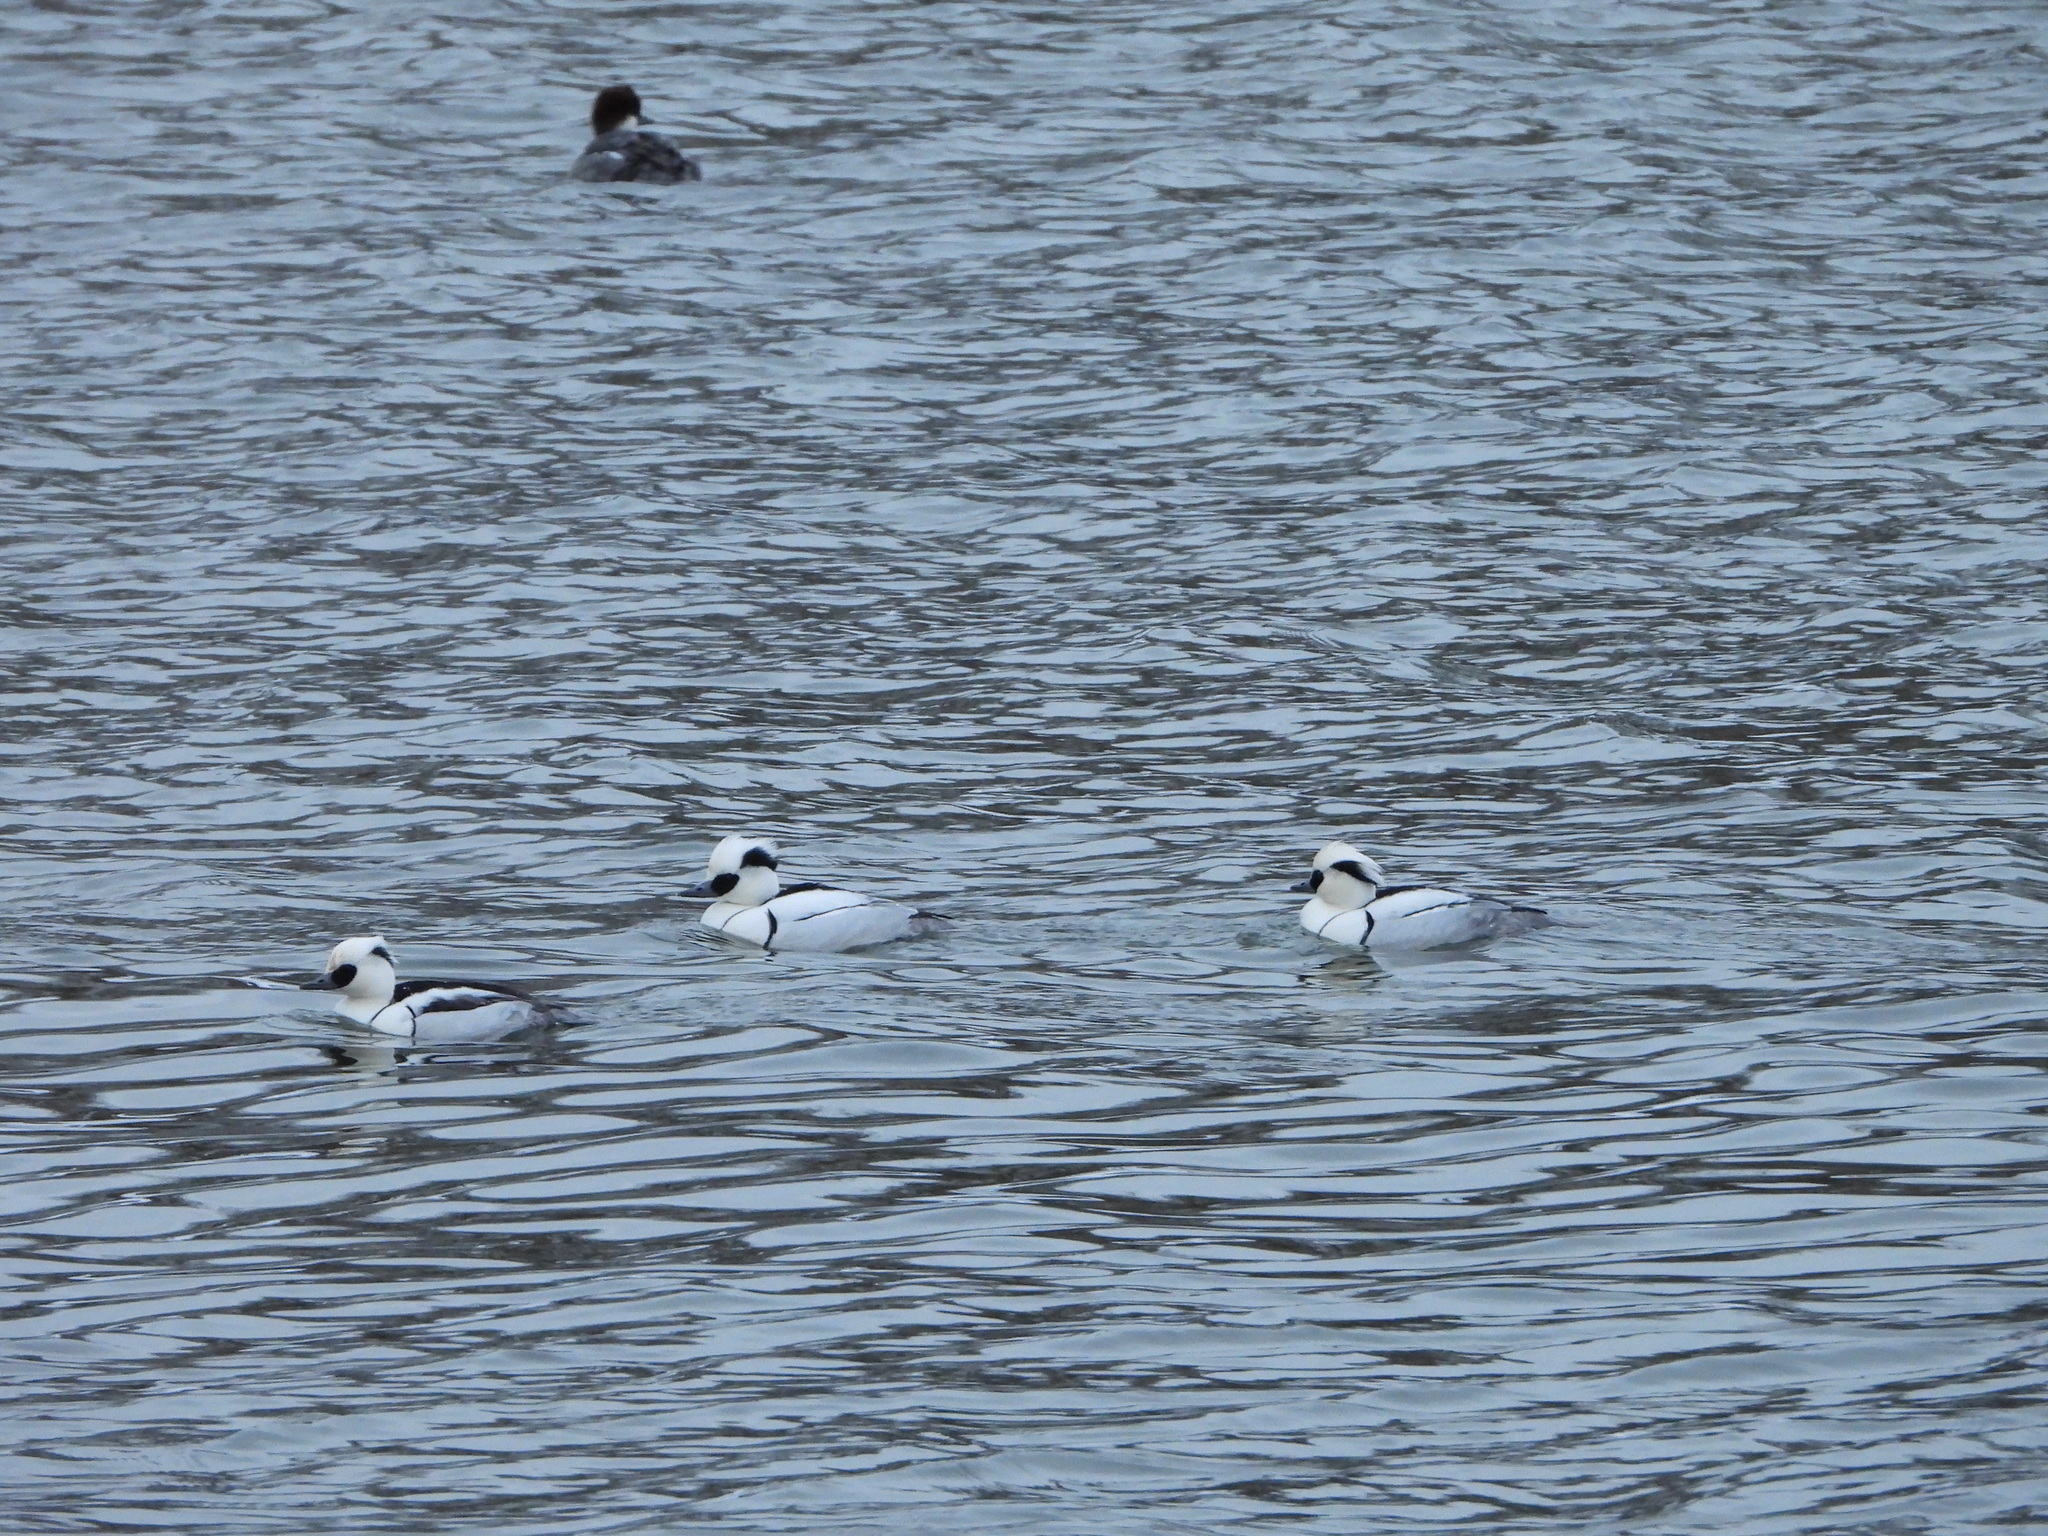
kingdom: Animalia
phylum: Chordata
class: Aves
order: Anseriformes
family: Anatidae
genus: Mergellus
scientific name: Mergellus albellus
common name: Smew
